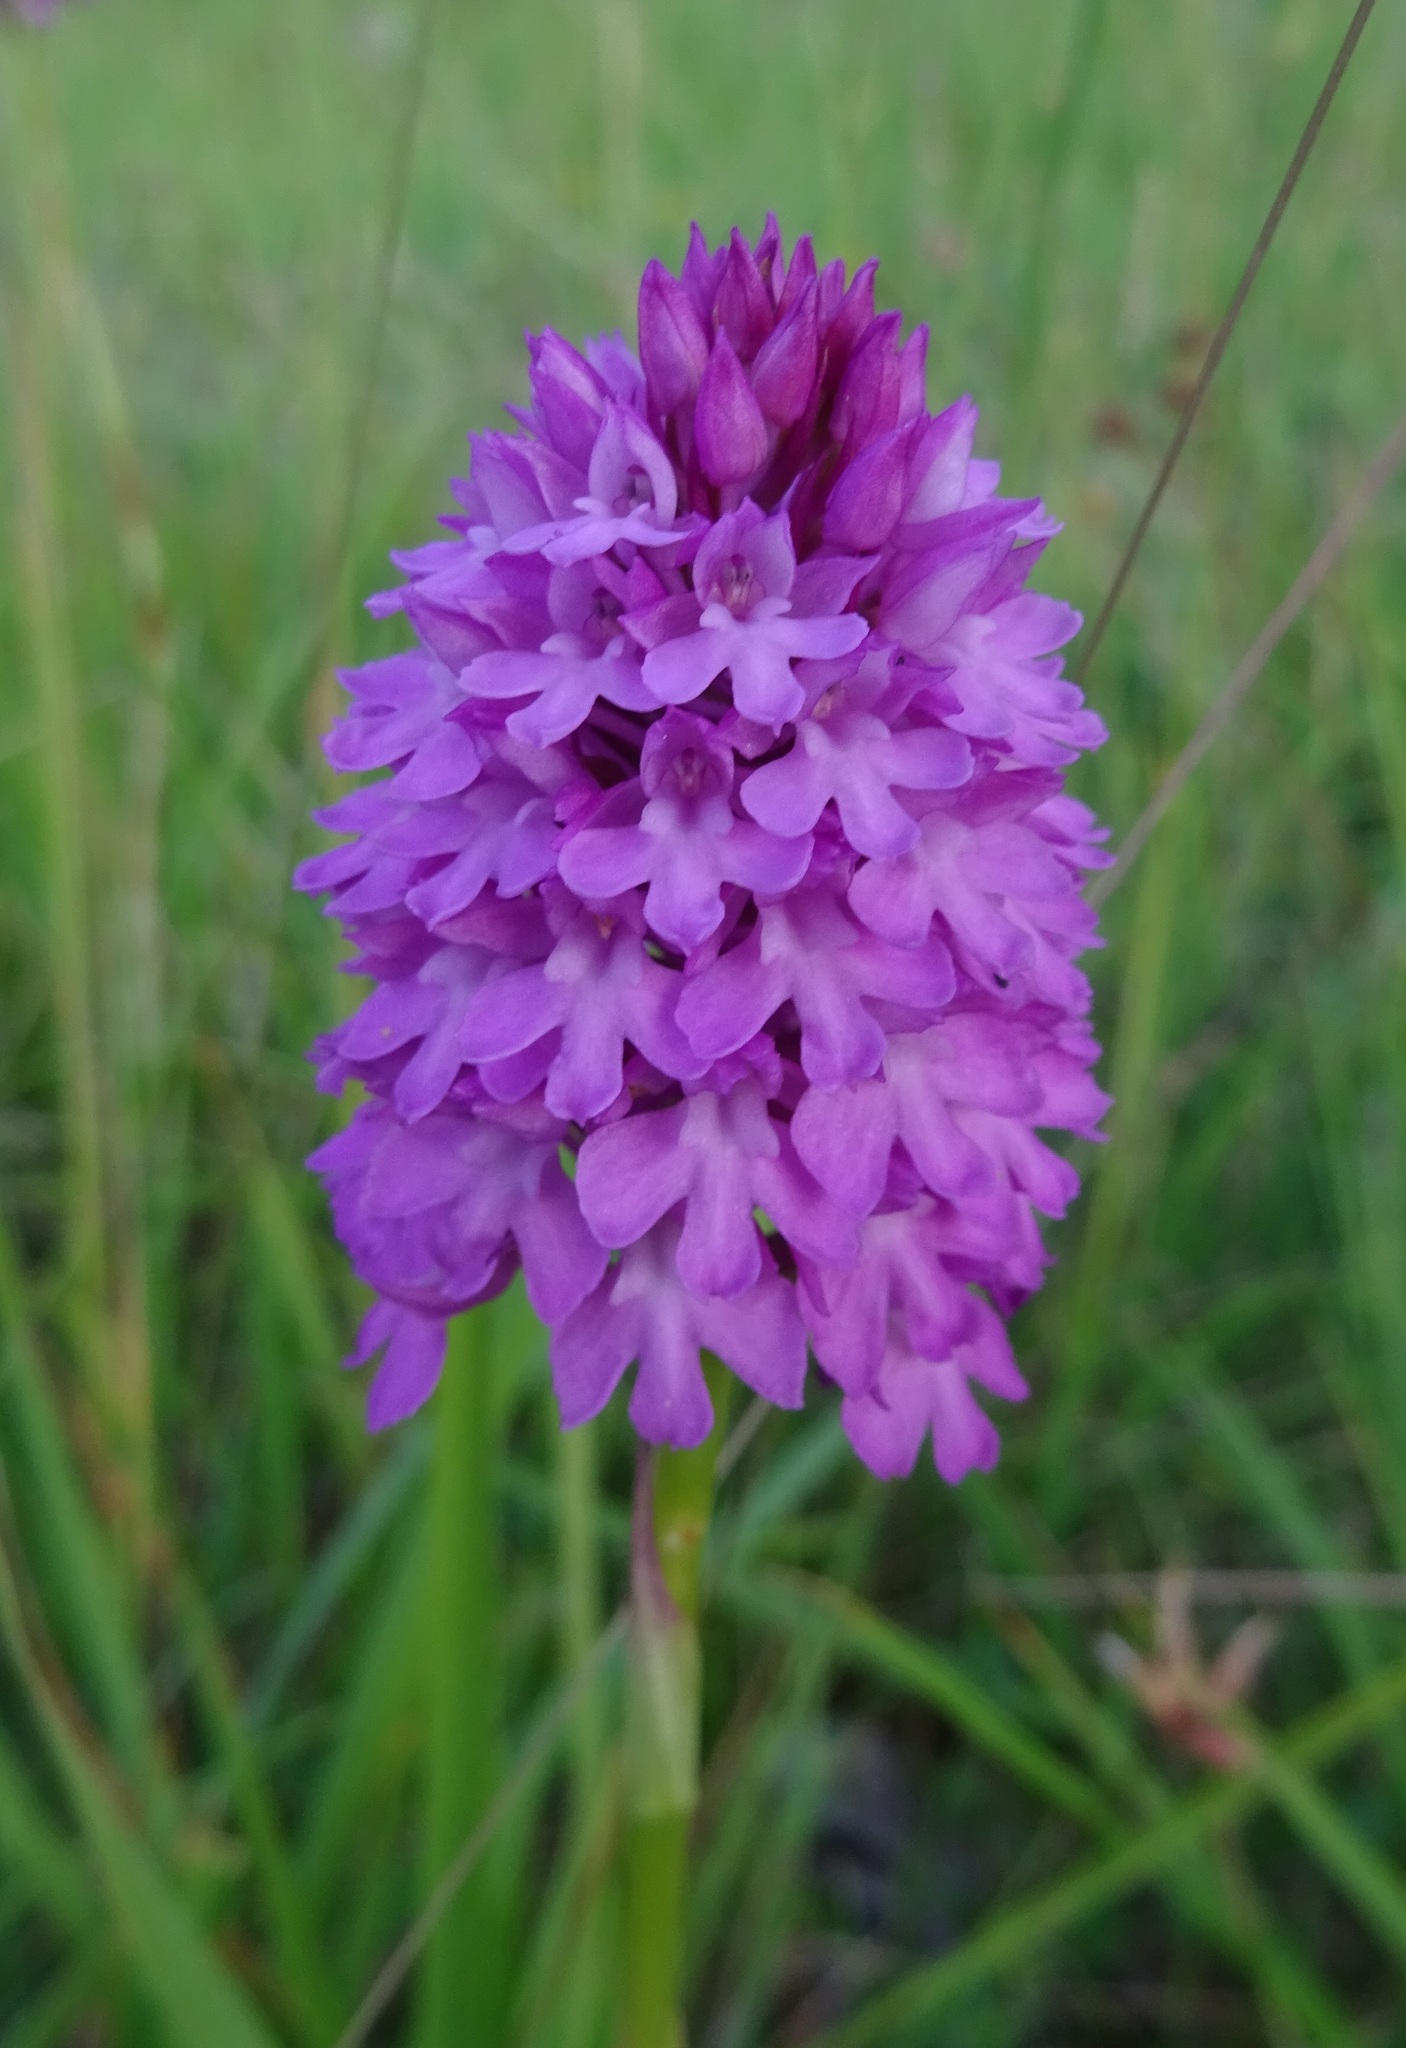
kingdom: Plantae
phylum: Tracheophyta
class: Liliopsida
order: Asparagales
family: Orchidaceae
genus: Anacamptis
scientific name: Anacamptis pyramidalis
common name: Pyramidal orchid
